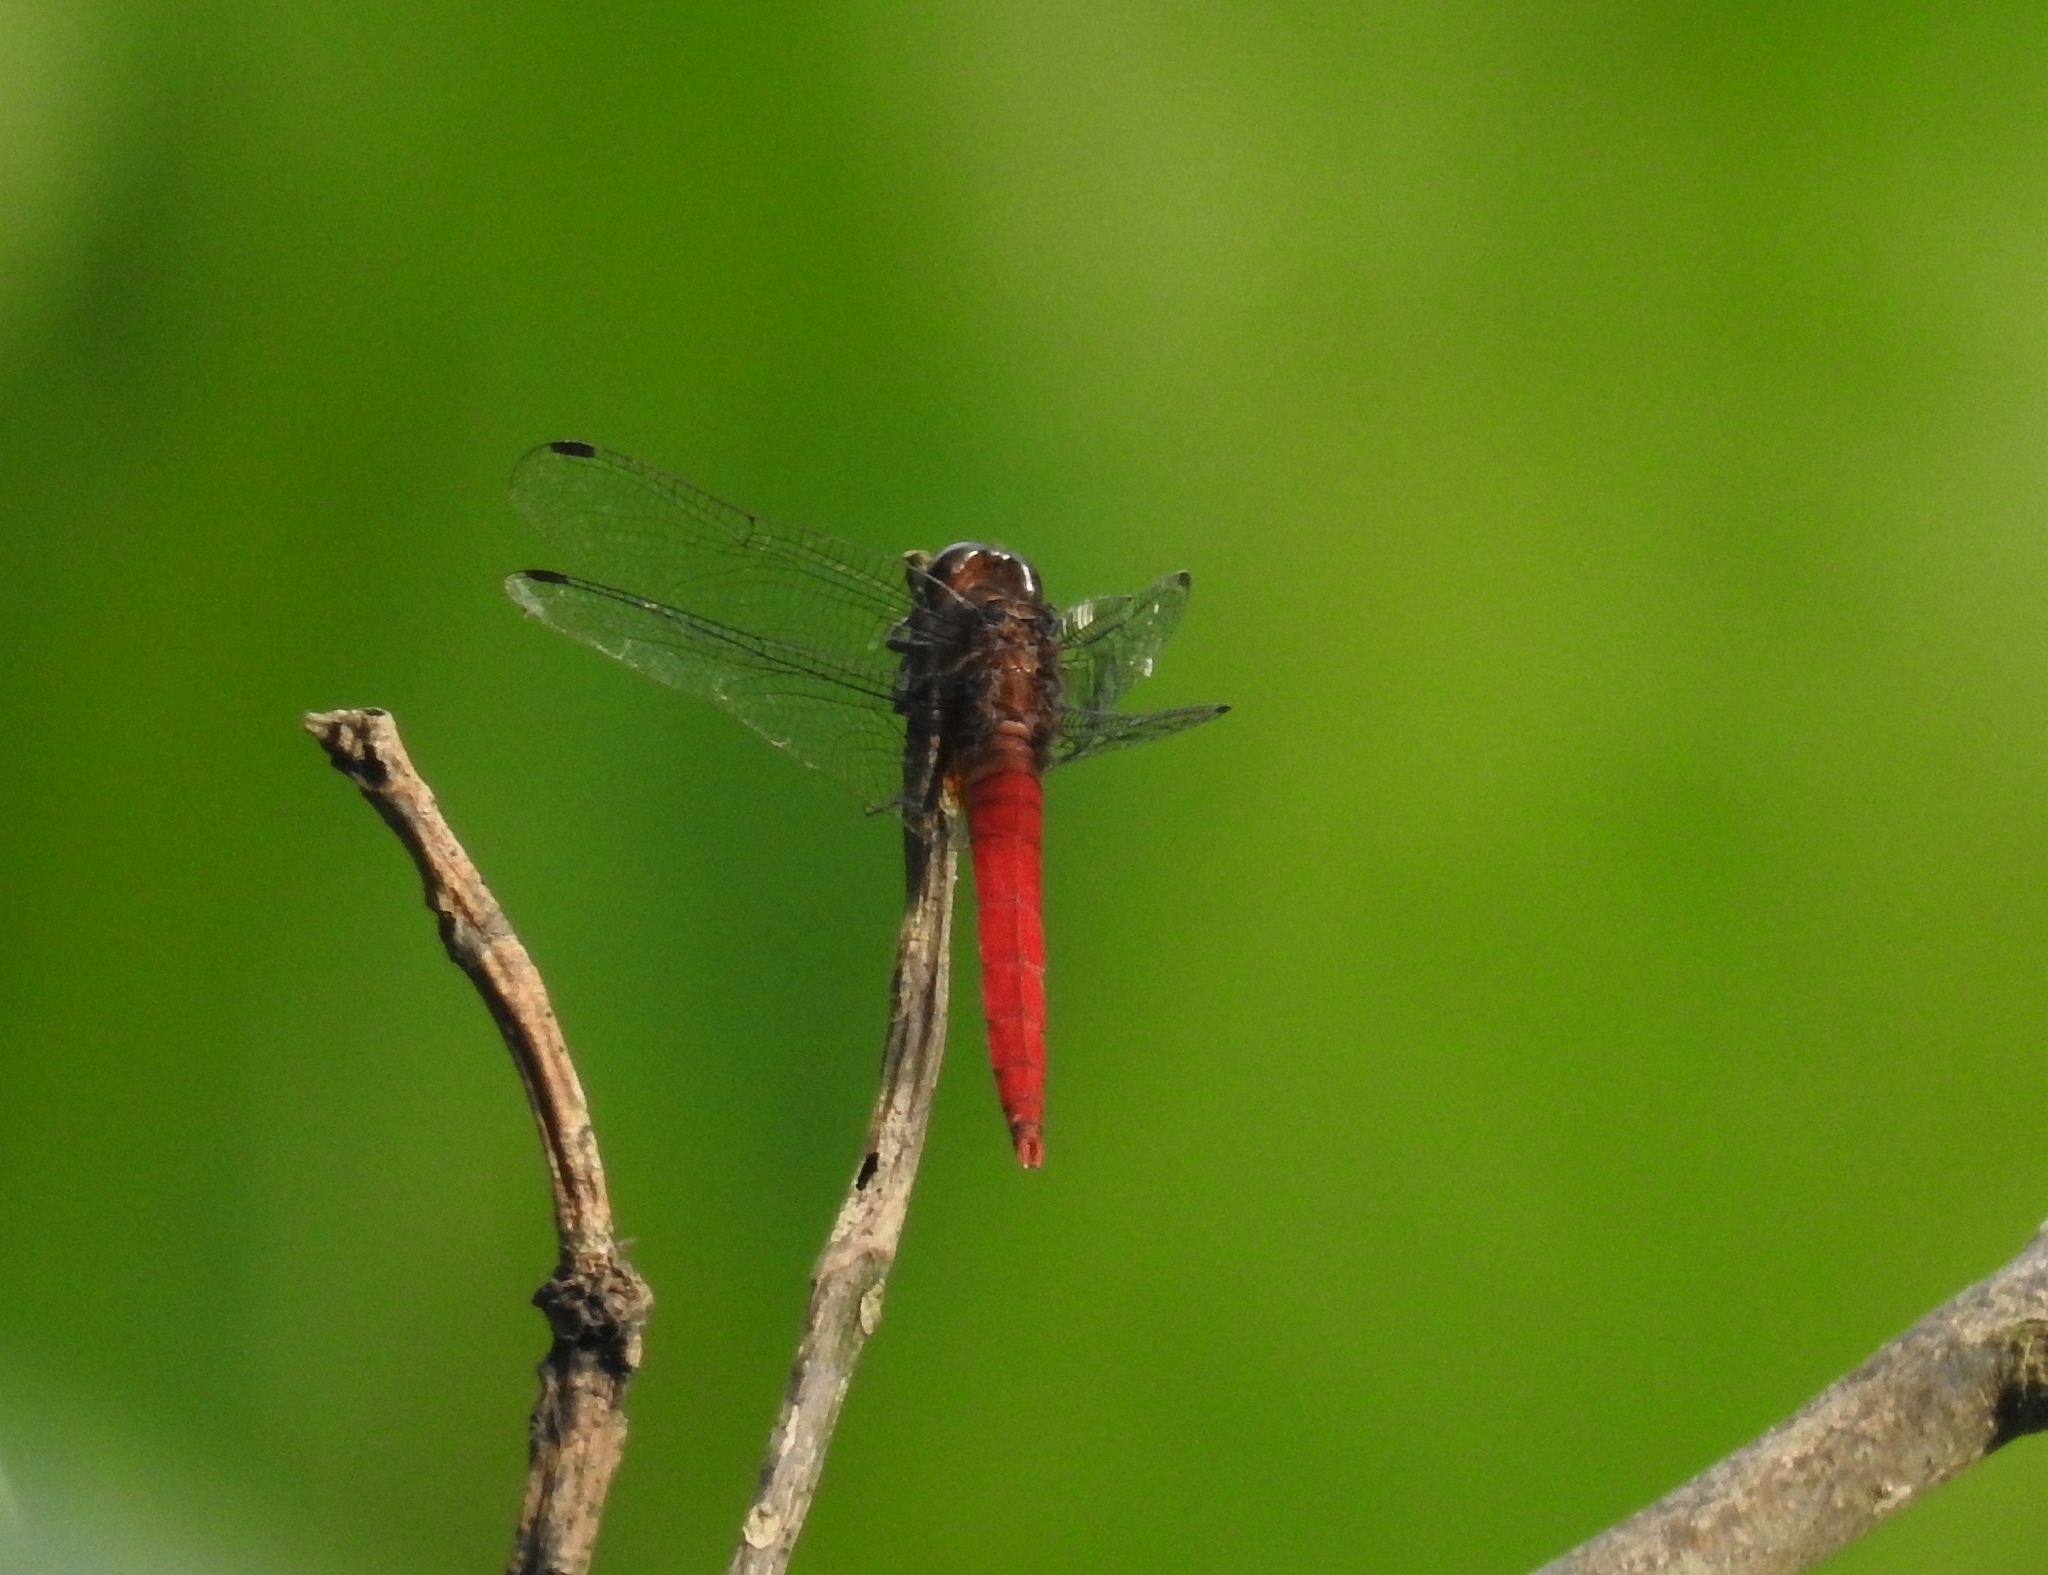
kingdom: Animalia
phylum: Arthropoda
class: Insecta
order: Odonata
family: Libellulidae
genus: Orthetrum
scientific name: Orthetrum chrysis
